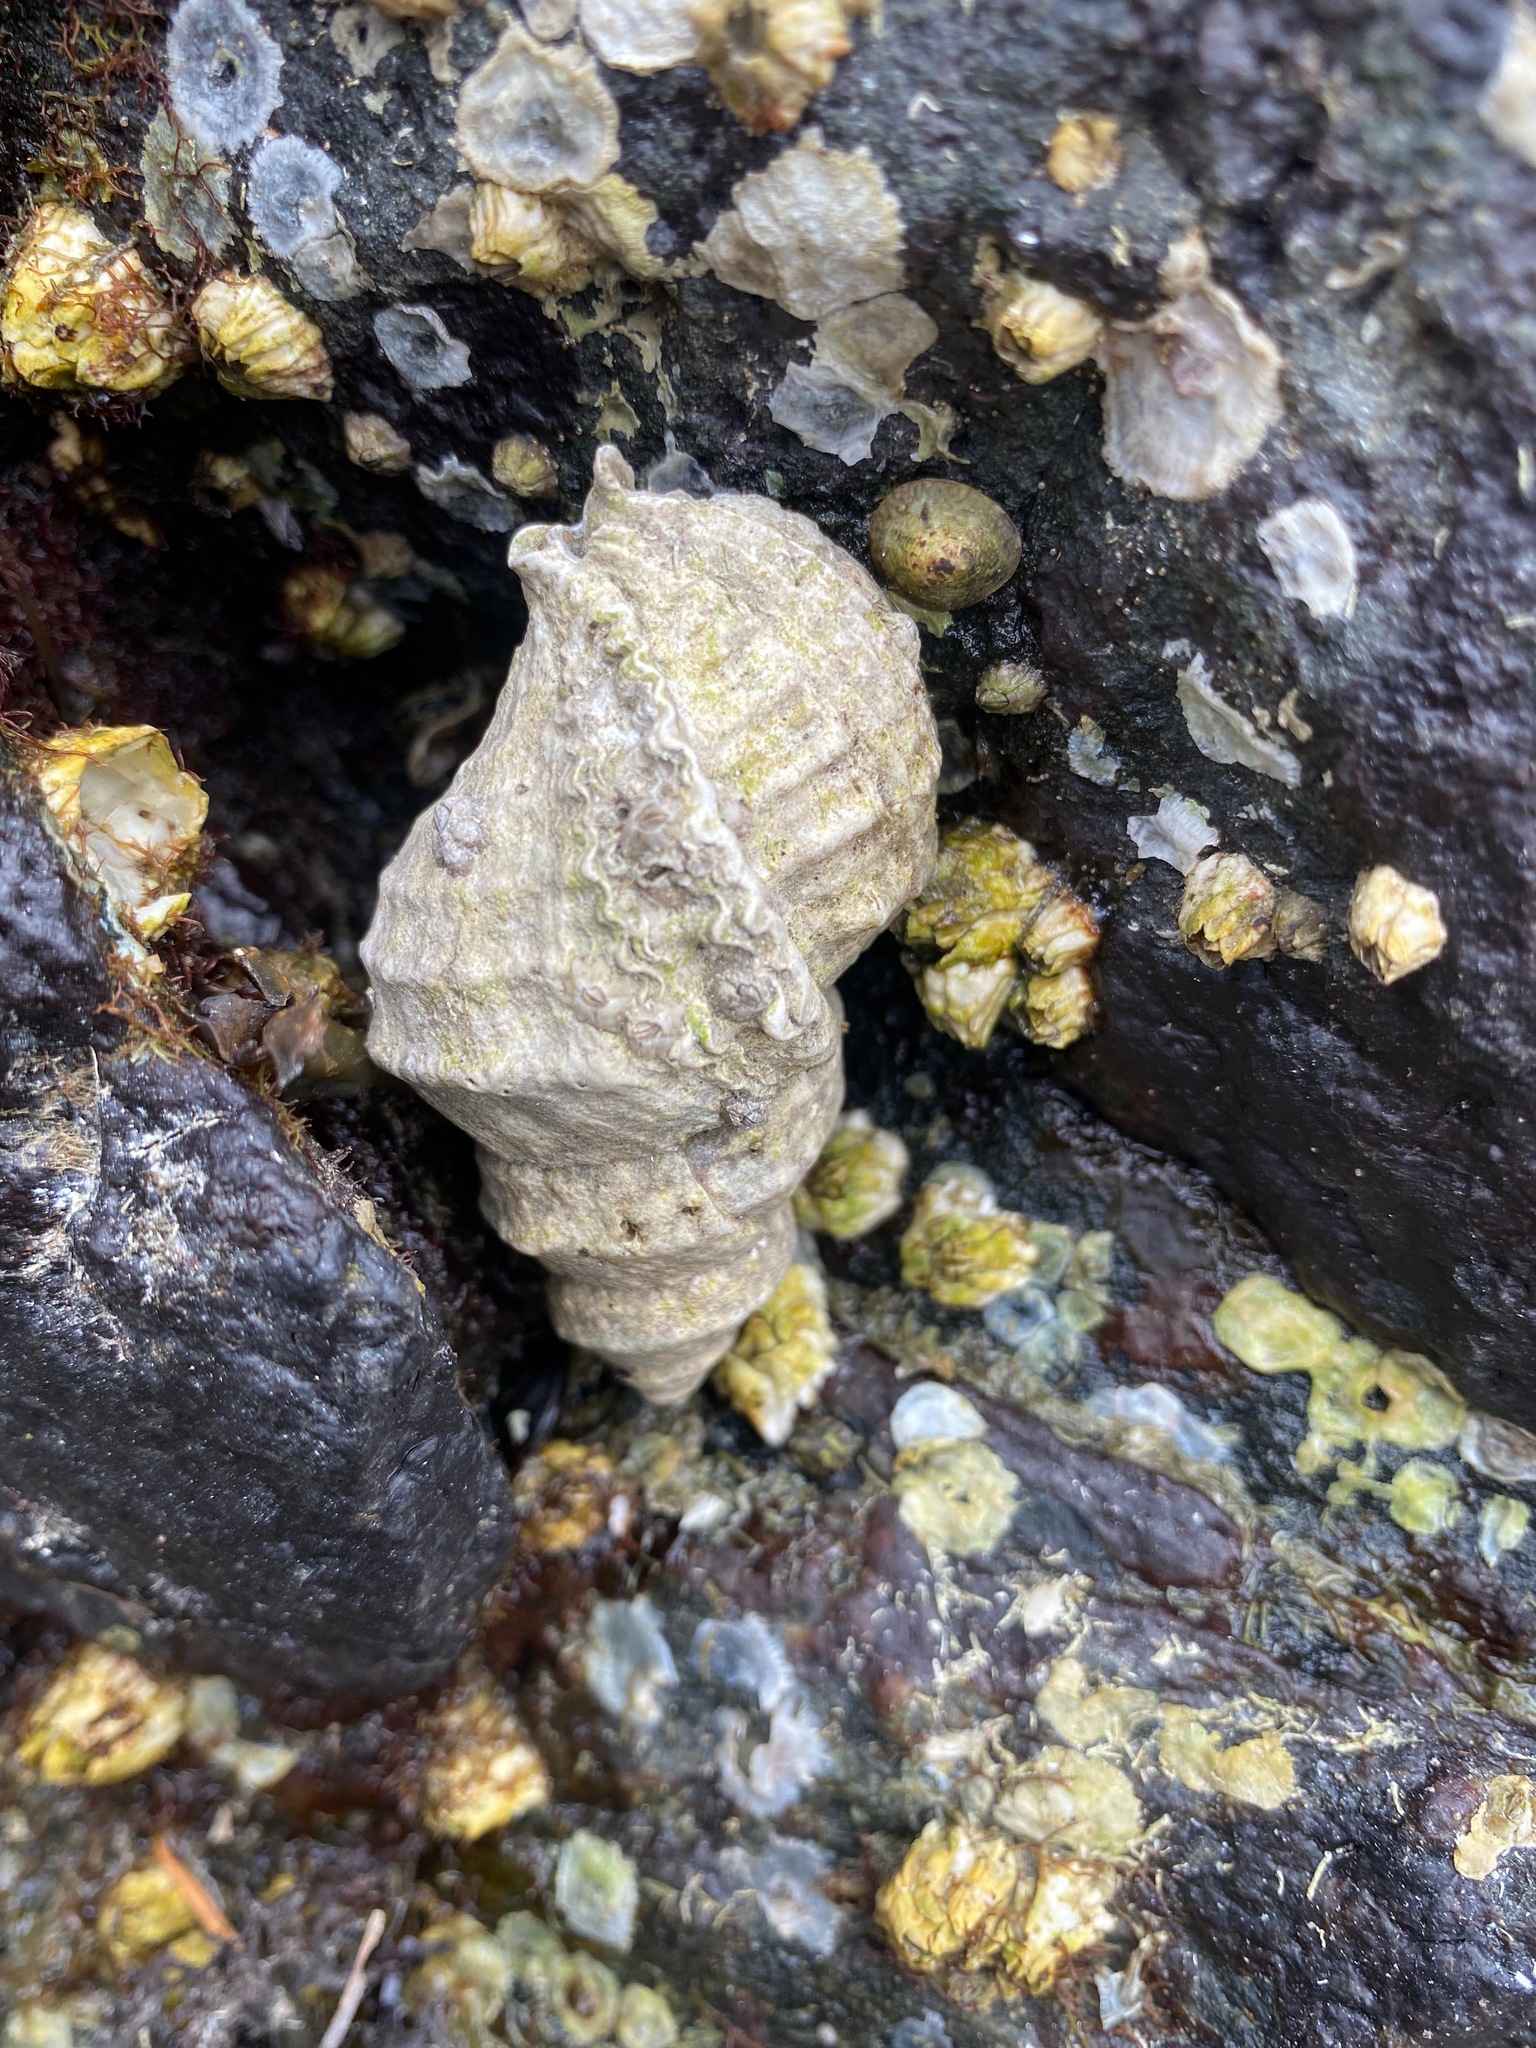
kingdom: Animalia
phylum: Mollusca
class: Gastropoda
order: Neogastropoda
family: Muricidae
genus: Nucella
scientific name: Nucella lamellosa
